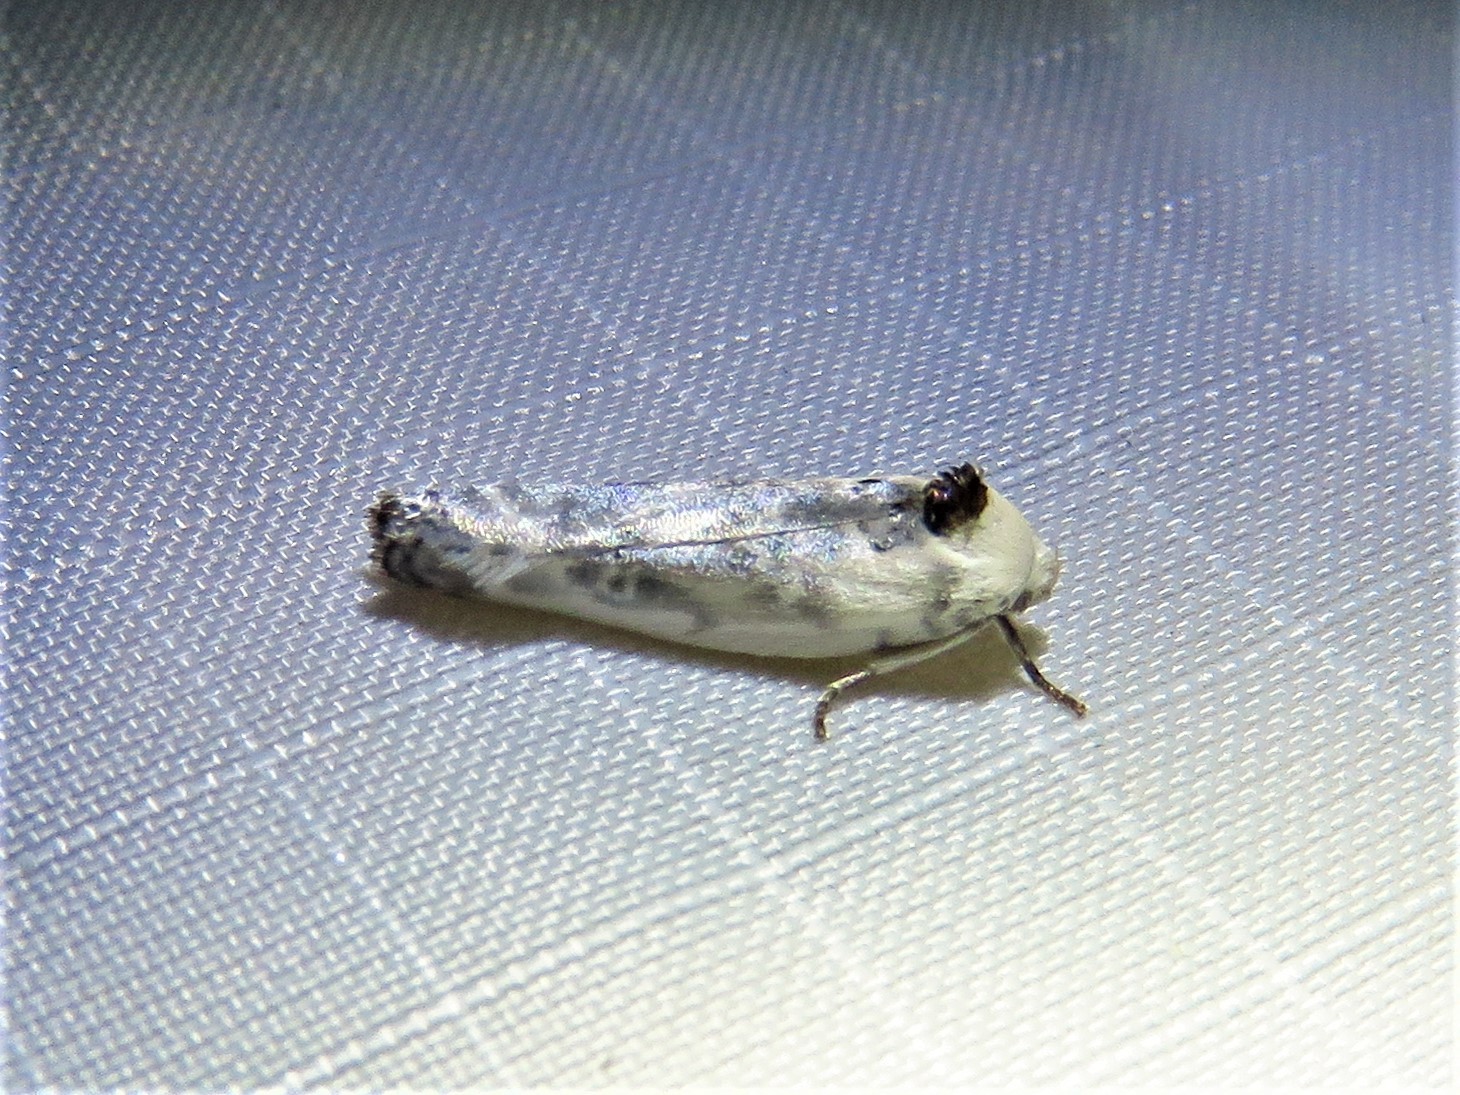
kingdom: Animalia
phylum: Arthropoda
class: Insecta
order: Lepidoptera
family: Depressariidae
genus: Antaeotricha
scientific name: Antaeotricha schlaegeri
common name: Schlaeger's fruitworm moth
